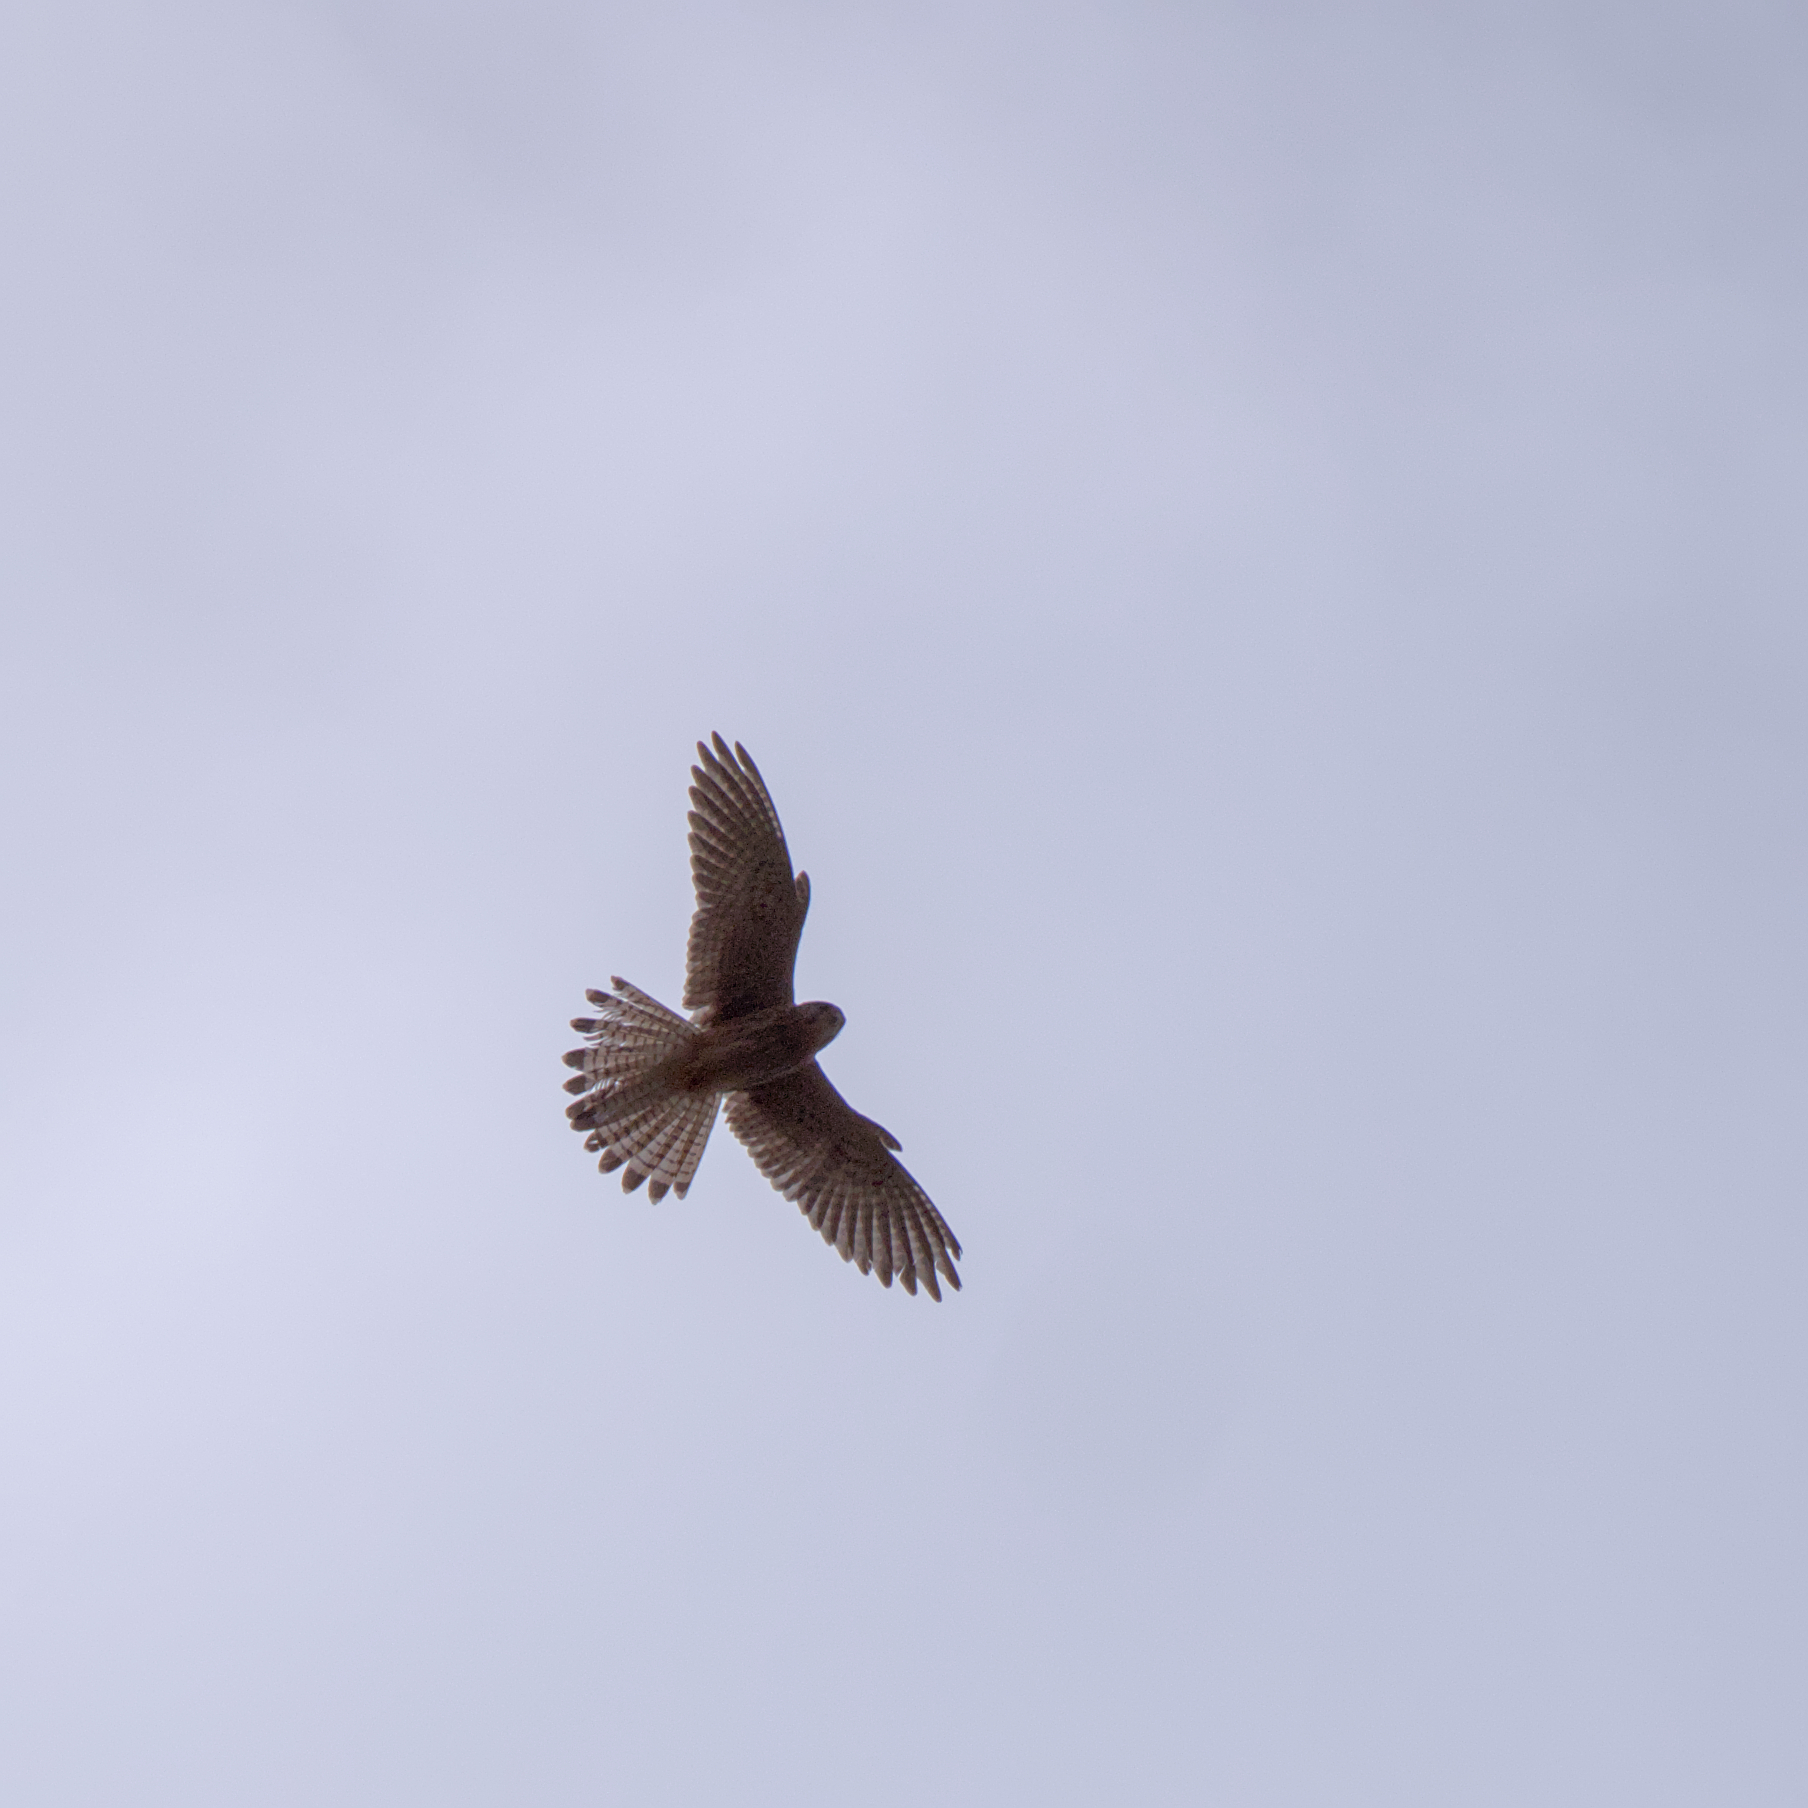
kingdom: Animalia
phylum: Chordata
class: Aves
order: Falconiformes
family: Falconidae
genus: Falco
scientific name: Falco tinnunculus
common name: Common kestrel
